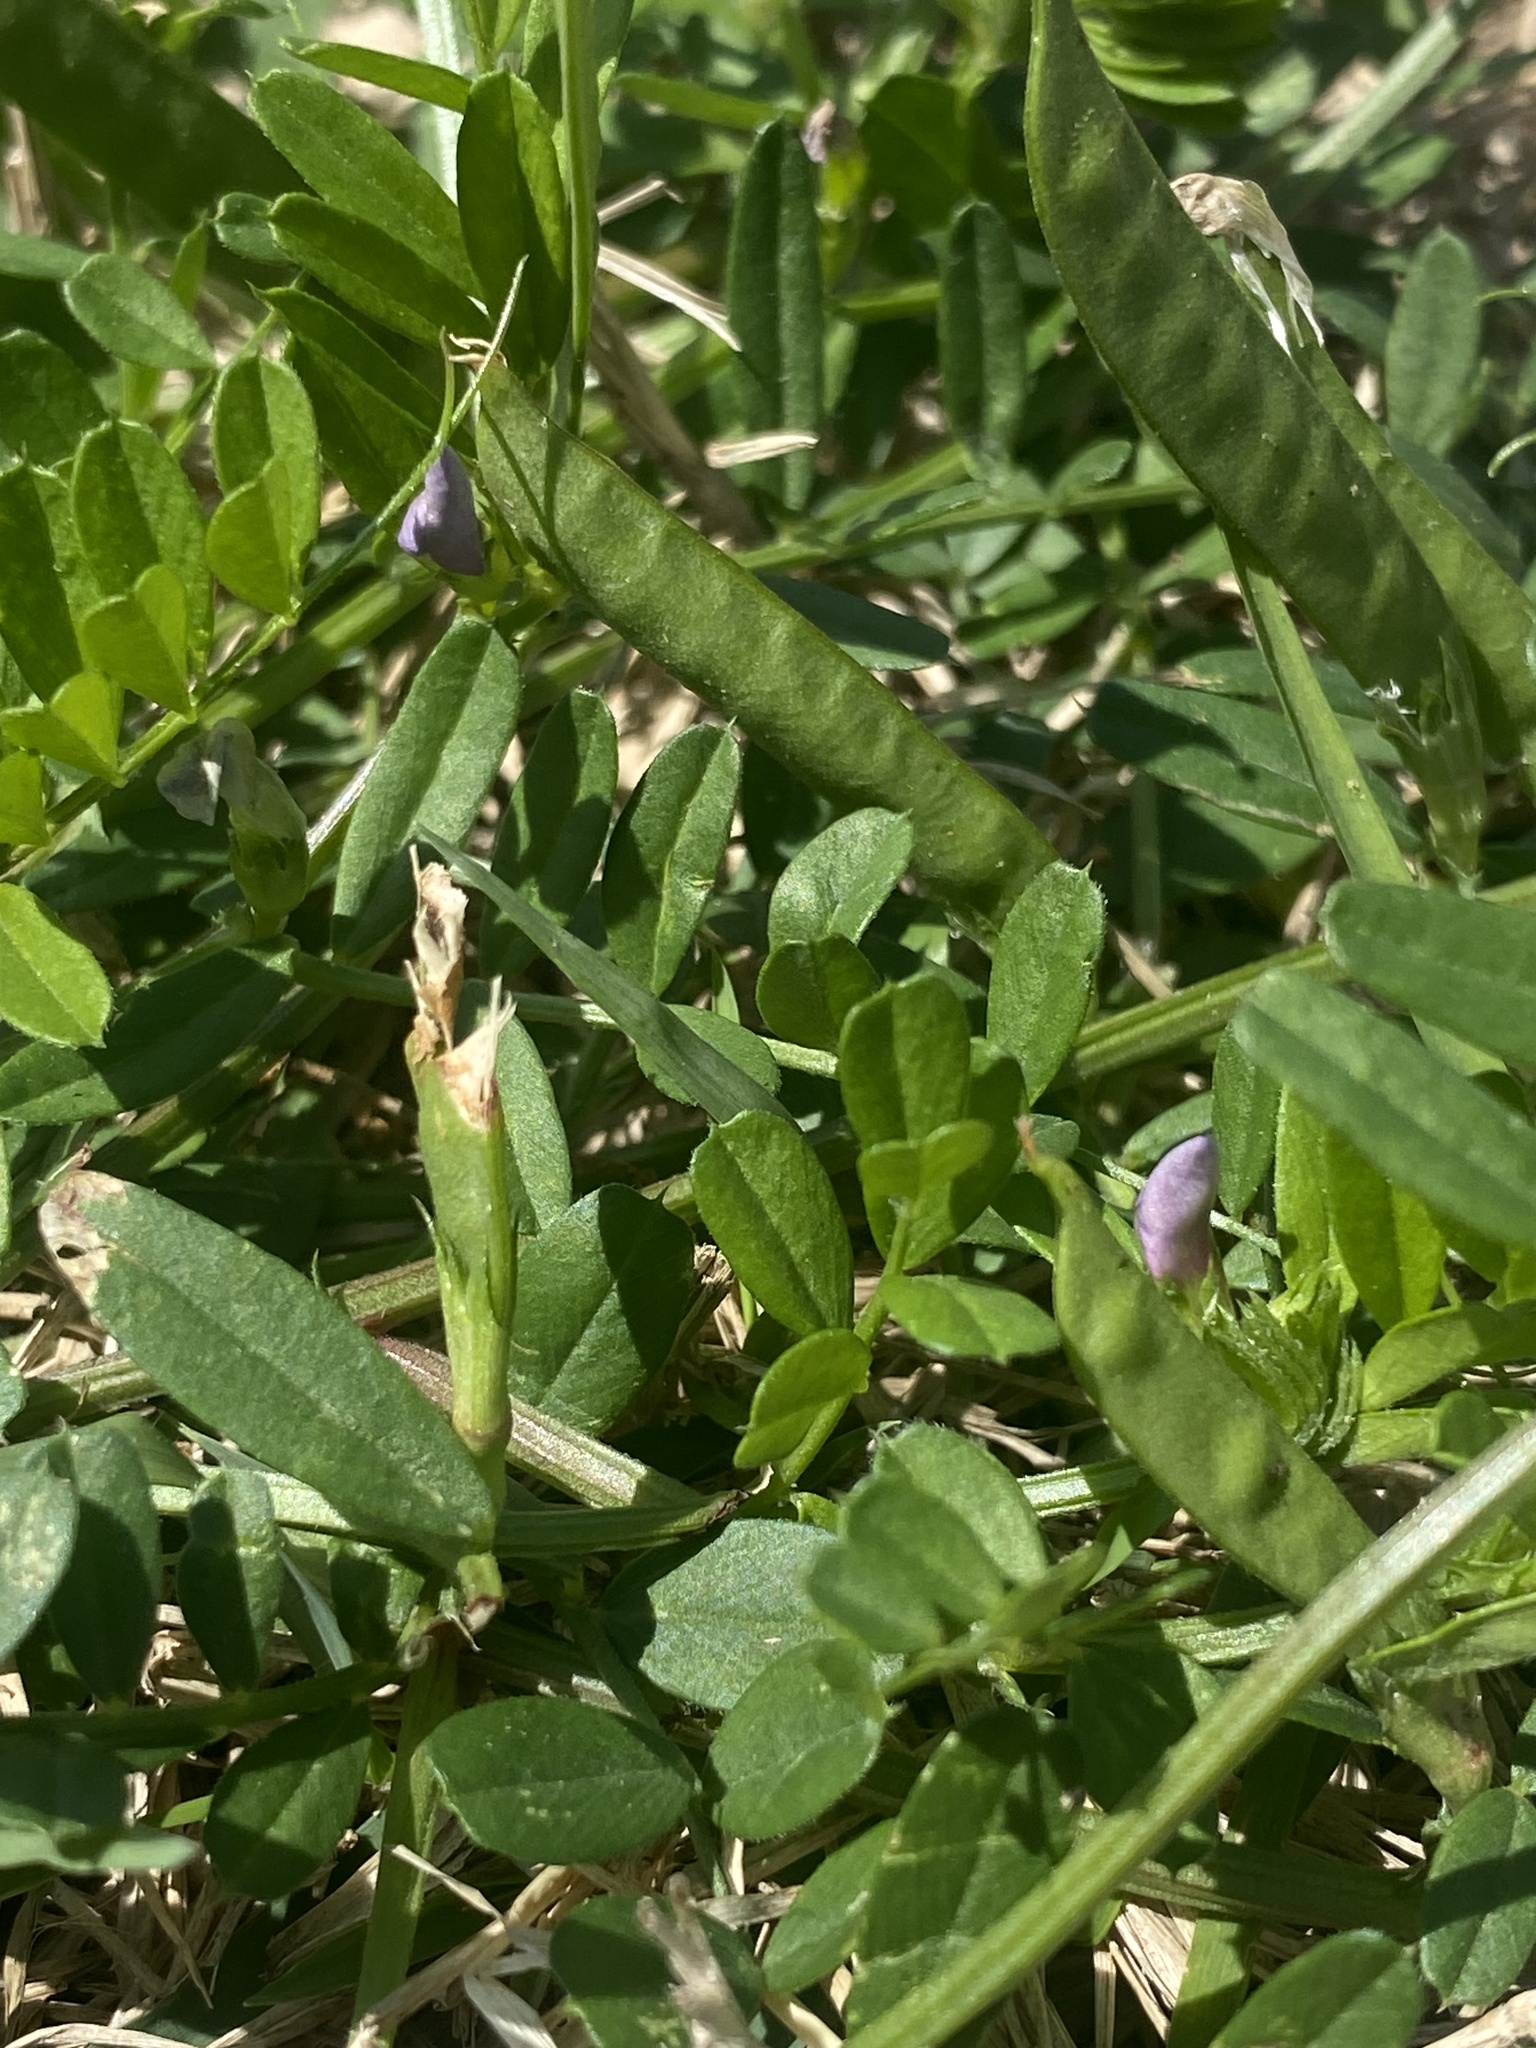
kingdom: Plantae
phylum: Tracheophyta
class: Magnoliopsida
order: Fabales
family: Fabaceae
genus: Vicia
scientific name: Vicia sativa
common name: Garden vetch
